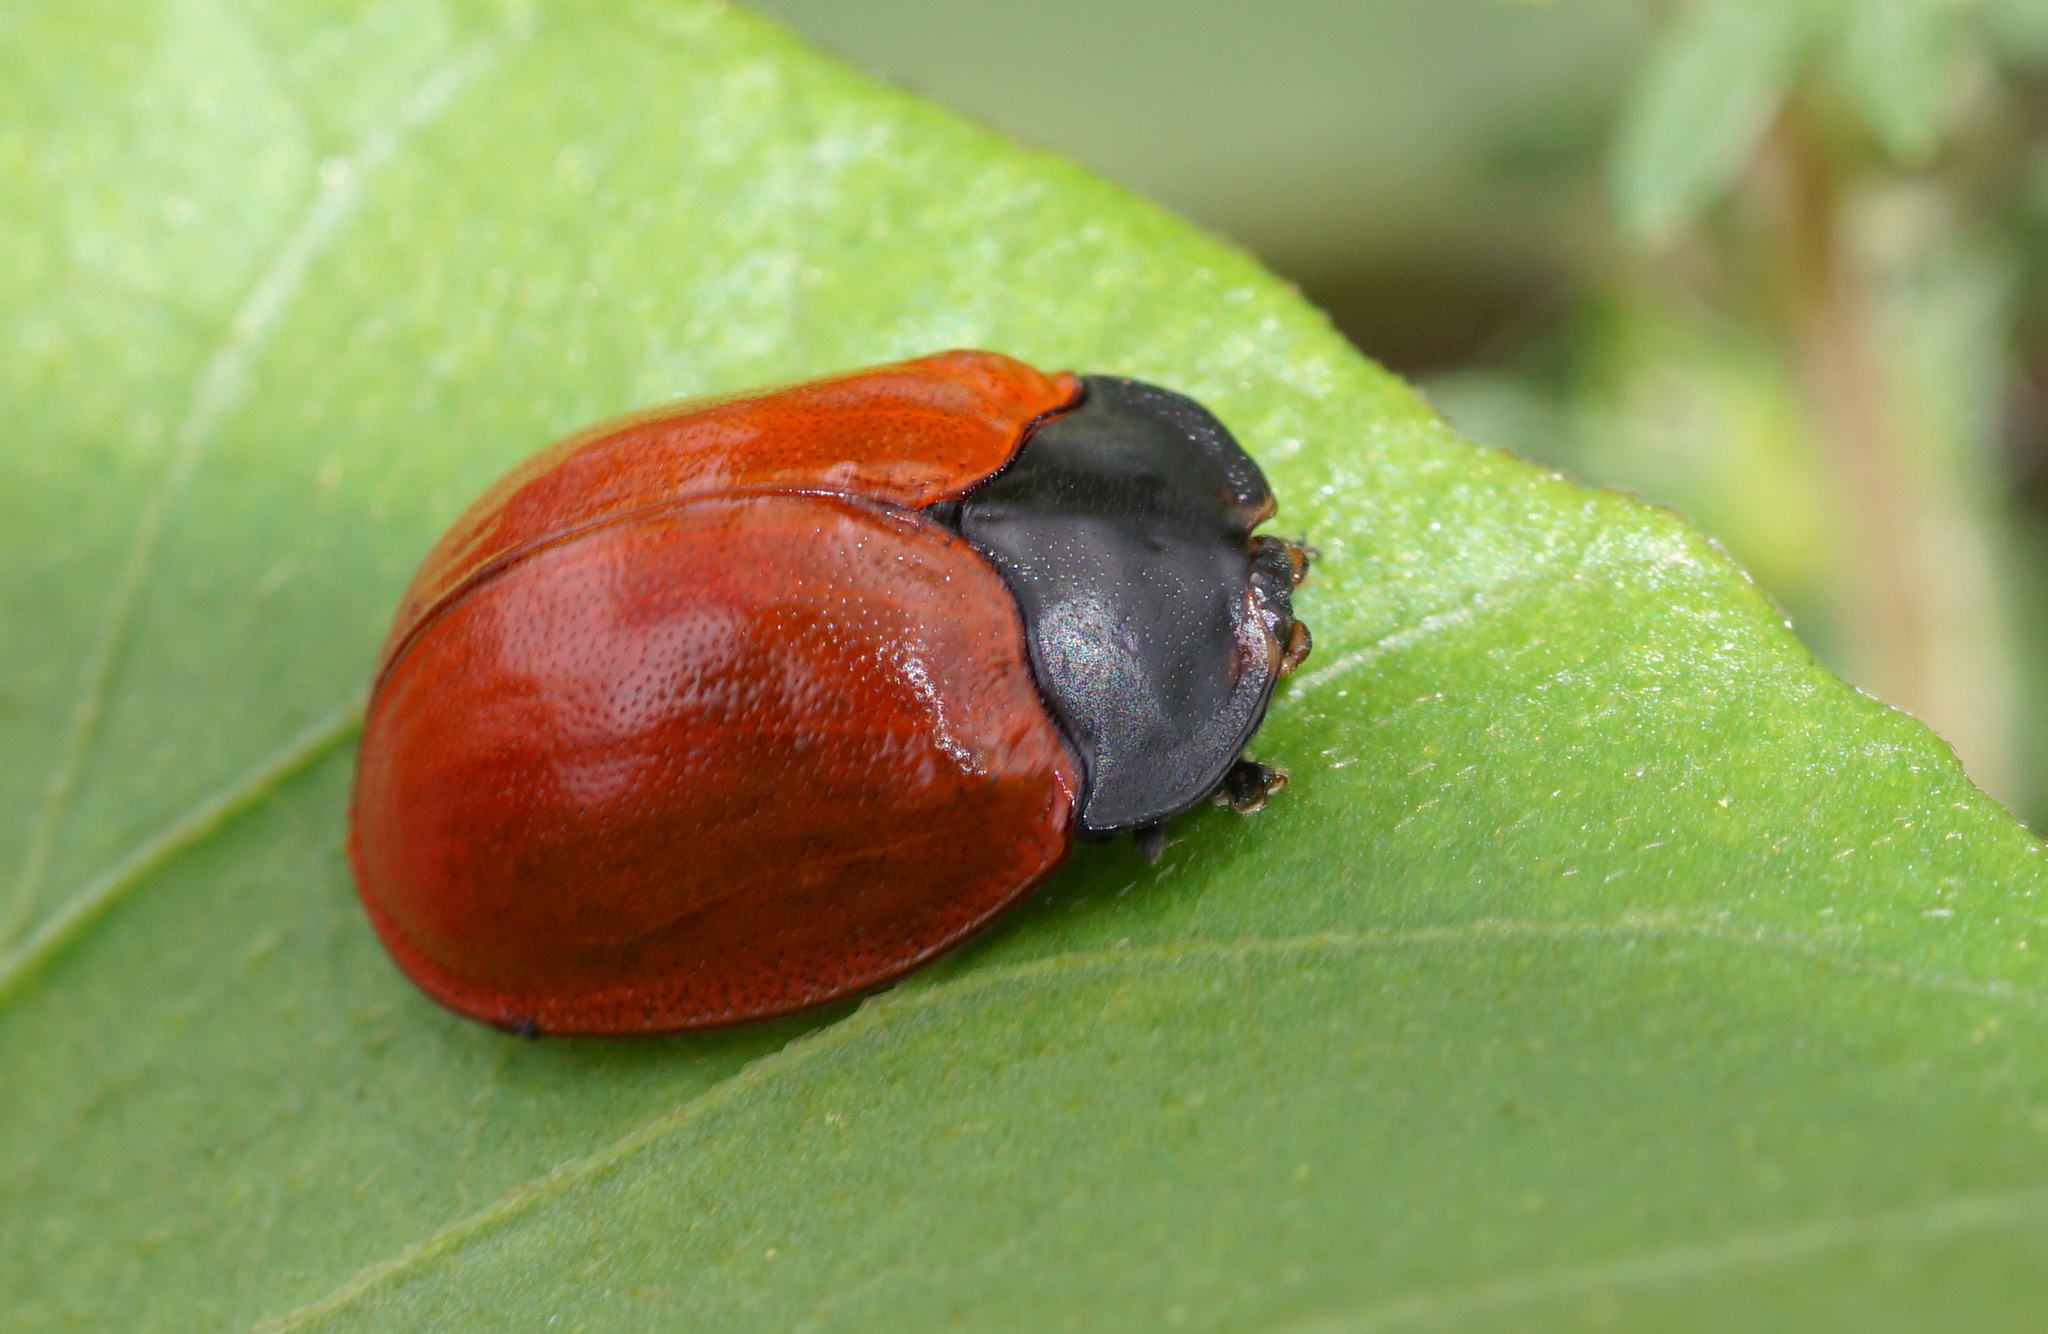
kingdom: Animalia
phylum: Arthropoda
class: Insecta
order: Coleoptera
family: Chrysomelidae
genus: Chelymorpha
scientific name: Chelymorpha cribraria
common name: Tortoise beetle
